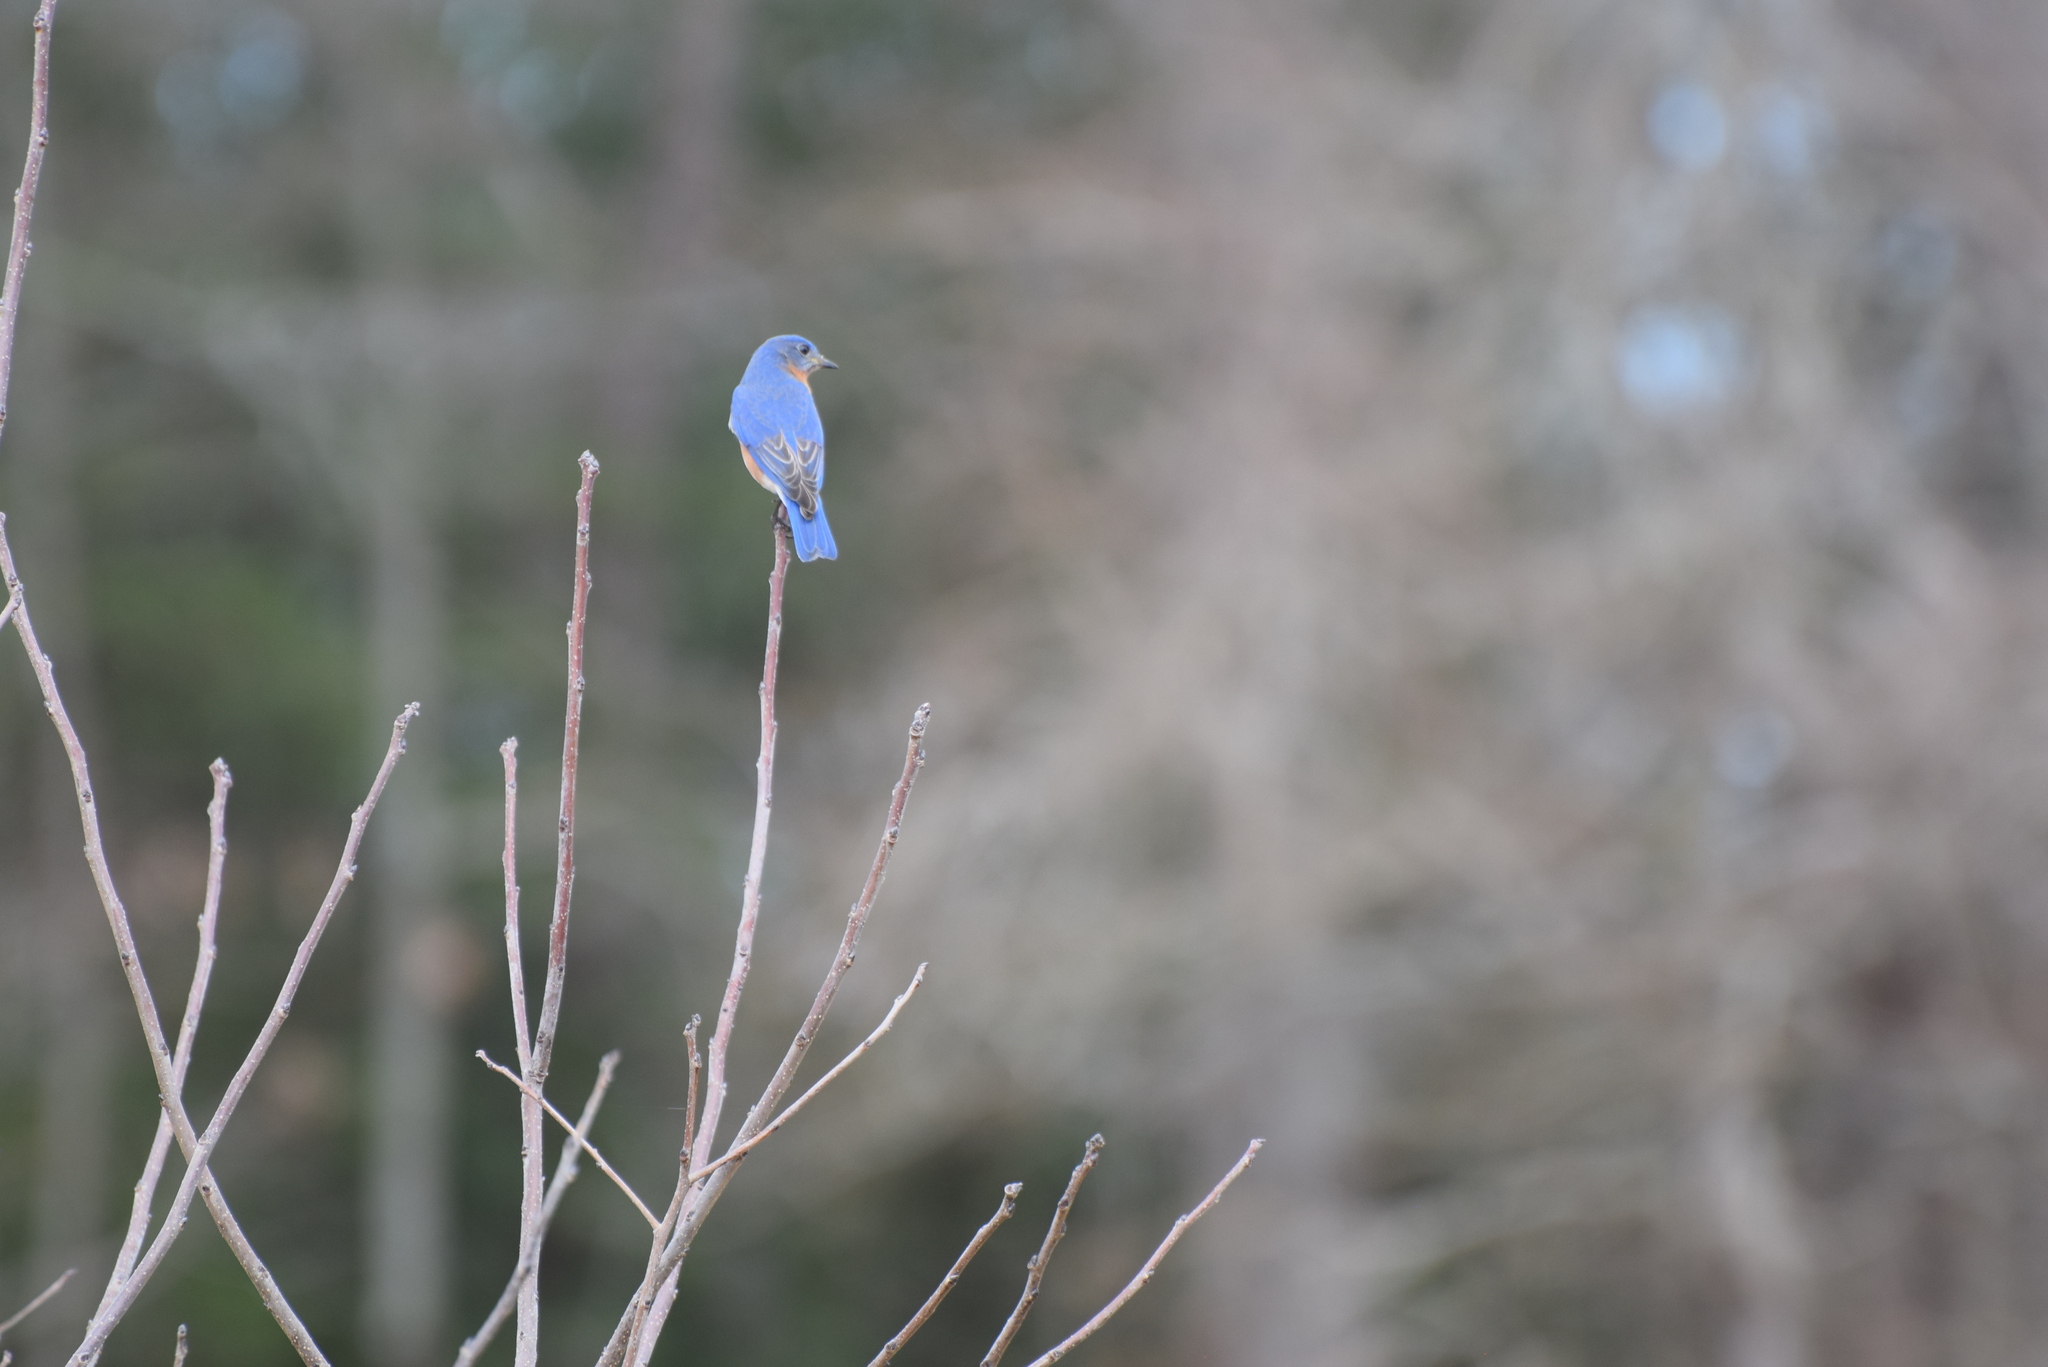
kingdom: Animalia
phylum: Chordata
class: Aves
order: Passeriformes
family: Turdidae
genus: Sialia
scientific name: Sialia sialis
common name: Eastern bluebird
